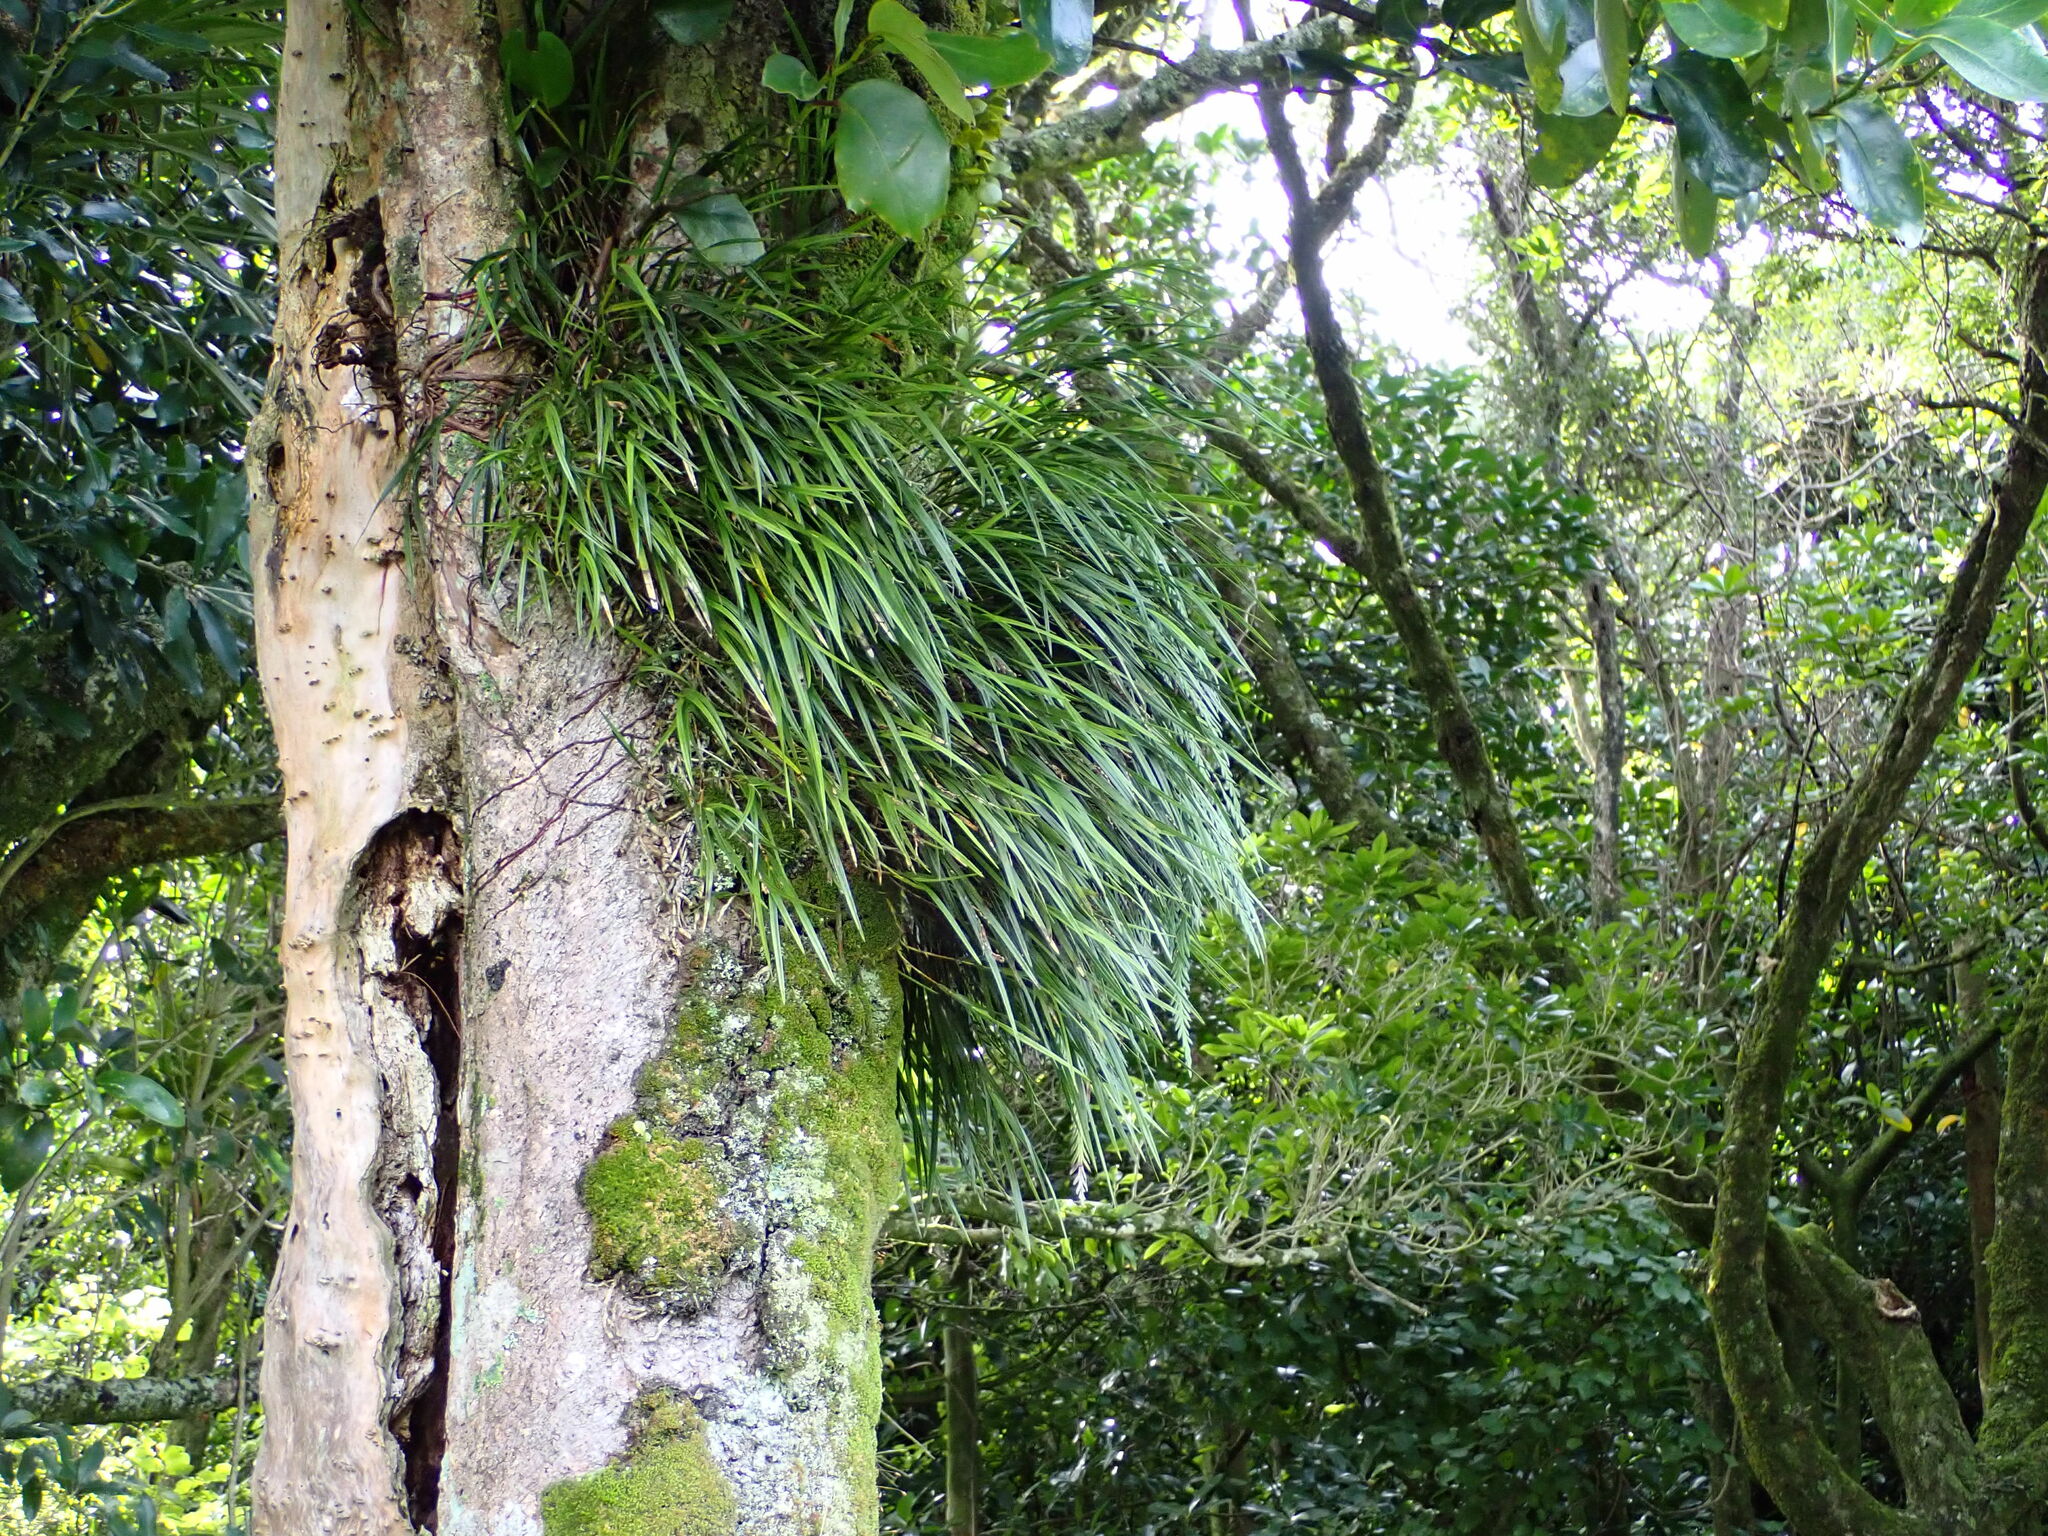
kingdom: Plantae
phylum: Tracheophyta
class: Liliopsida
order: Asparagales
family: Orchidaceae
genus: Earina
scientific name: Earina mucronata
